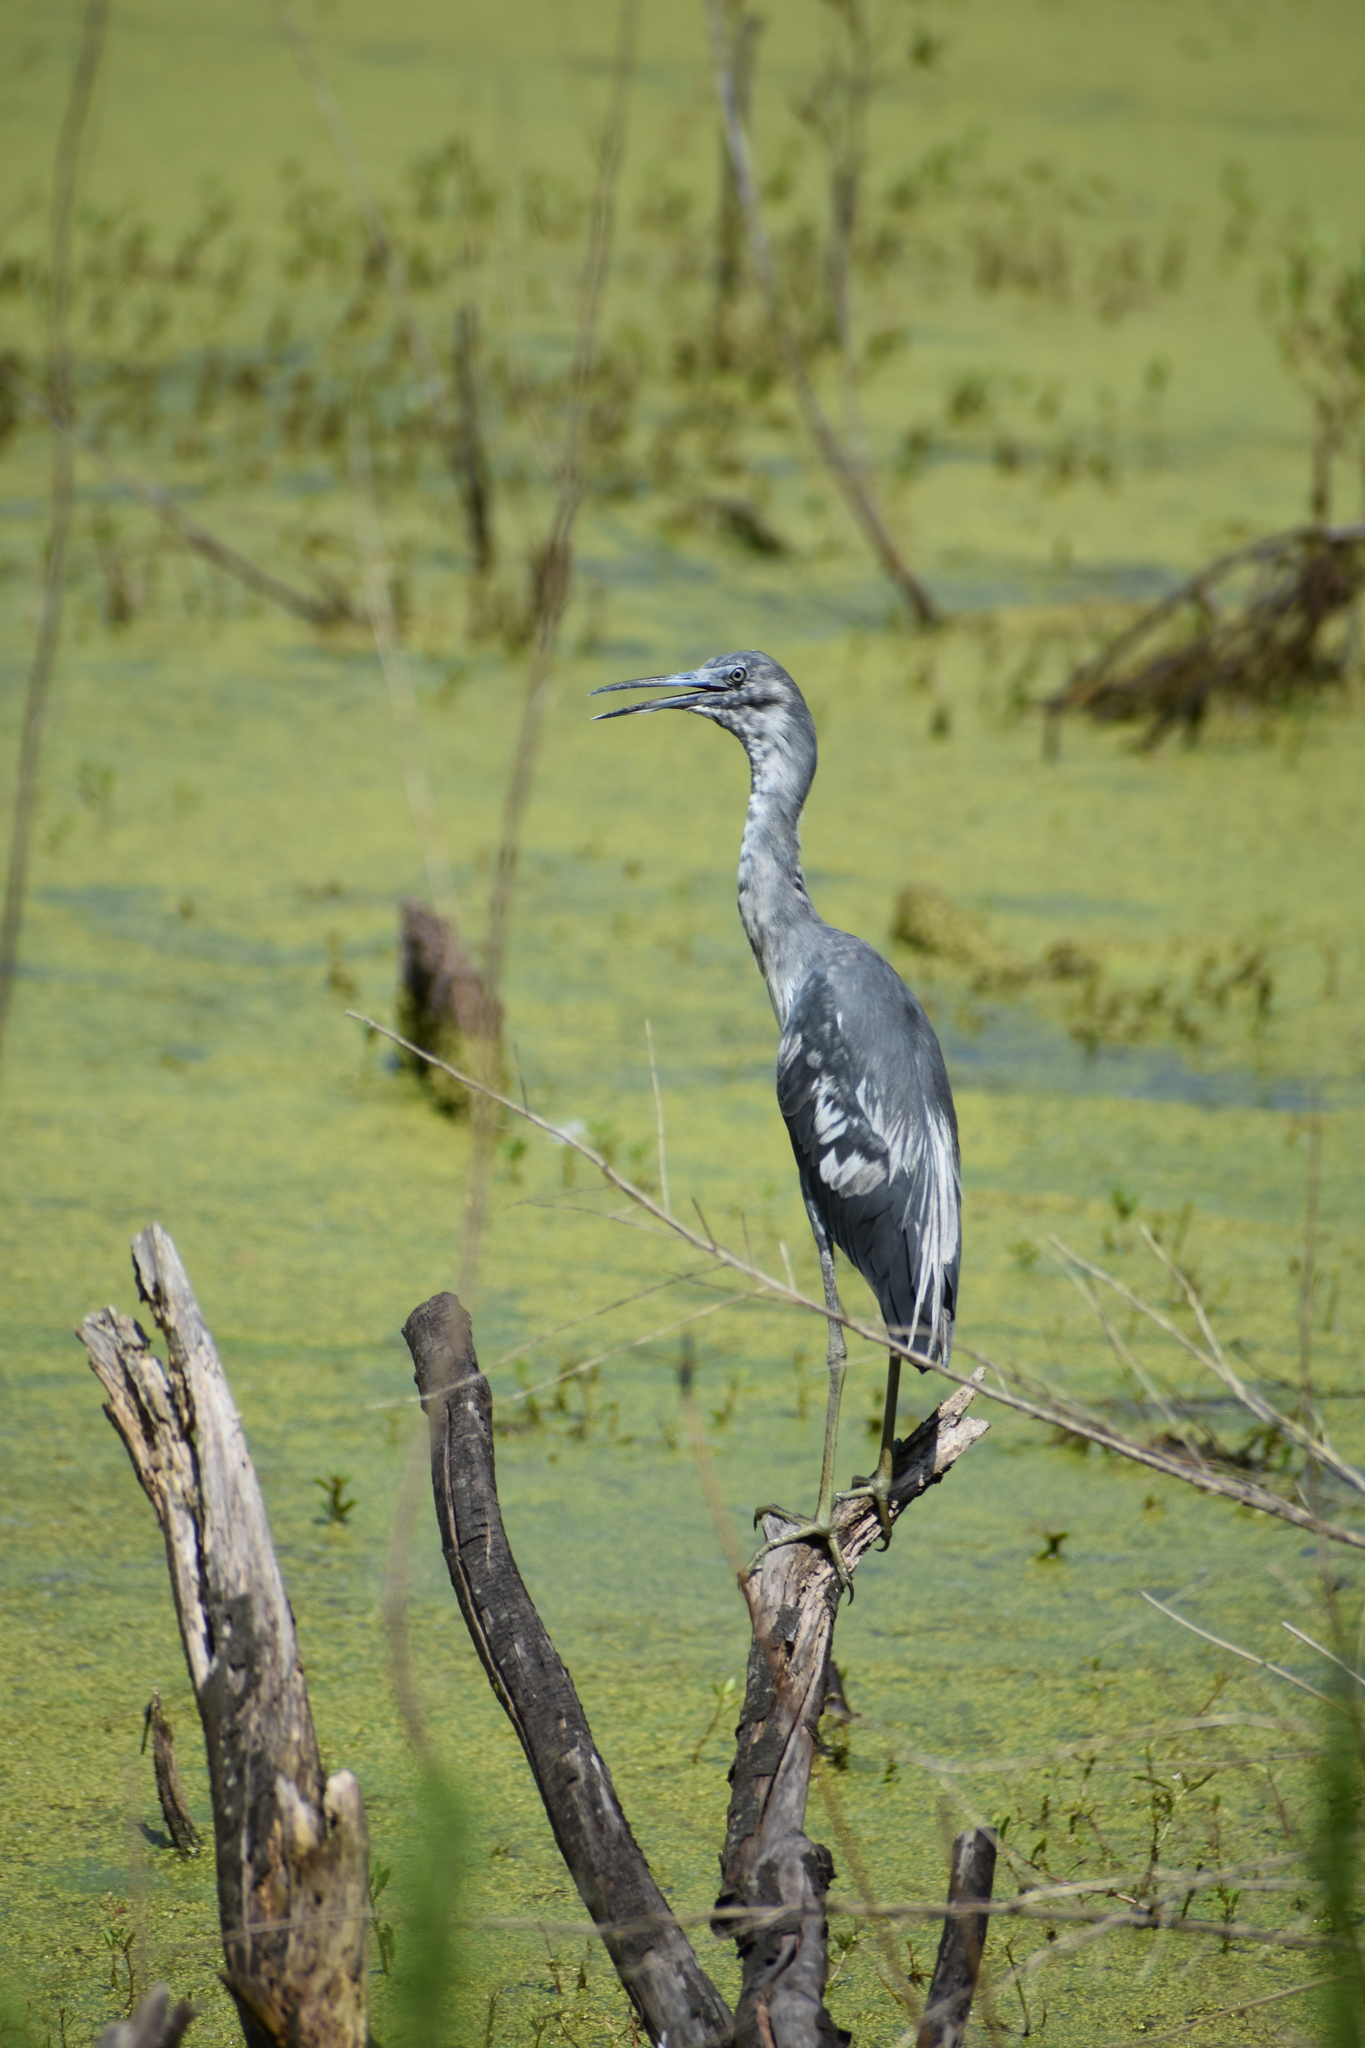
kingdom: Animalia
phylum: Chordata
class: Aves
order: Pelecaniformes
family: Ardeidae
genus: Egretta
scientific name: Egretta caerulea
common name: Little blue heron
